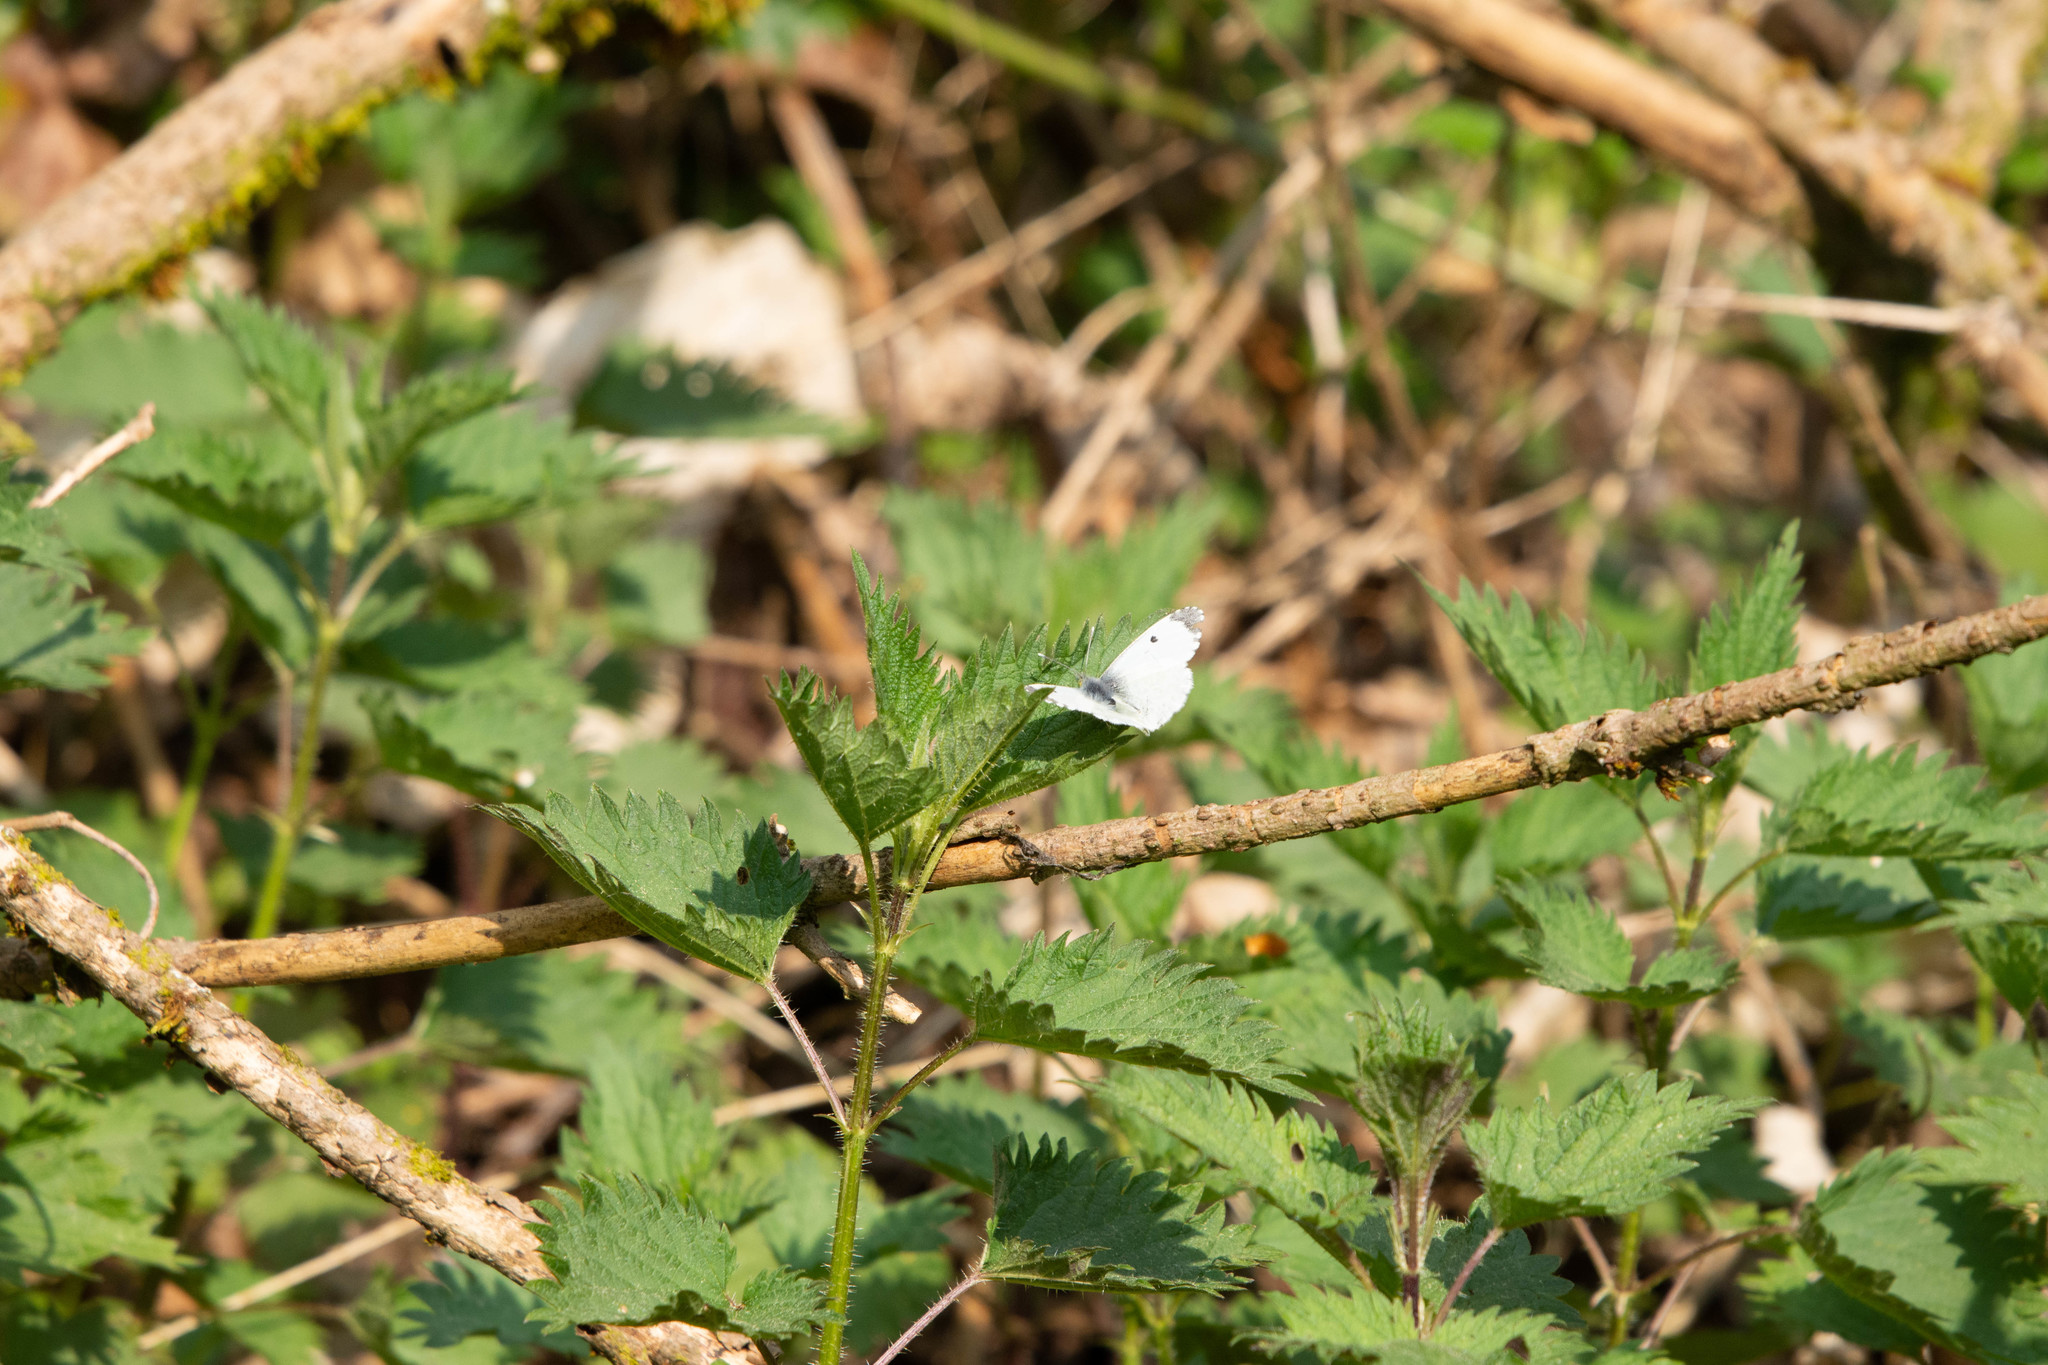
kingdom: Animalia
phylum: Arthropoda
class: Insecta
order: Lepidoptera
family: Pieridae
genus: Anthocharis
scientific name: Anthocharis cardamines
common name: Orange-tip
